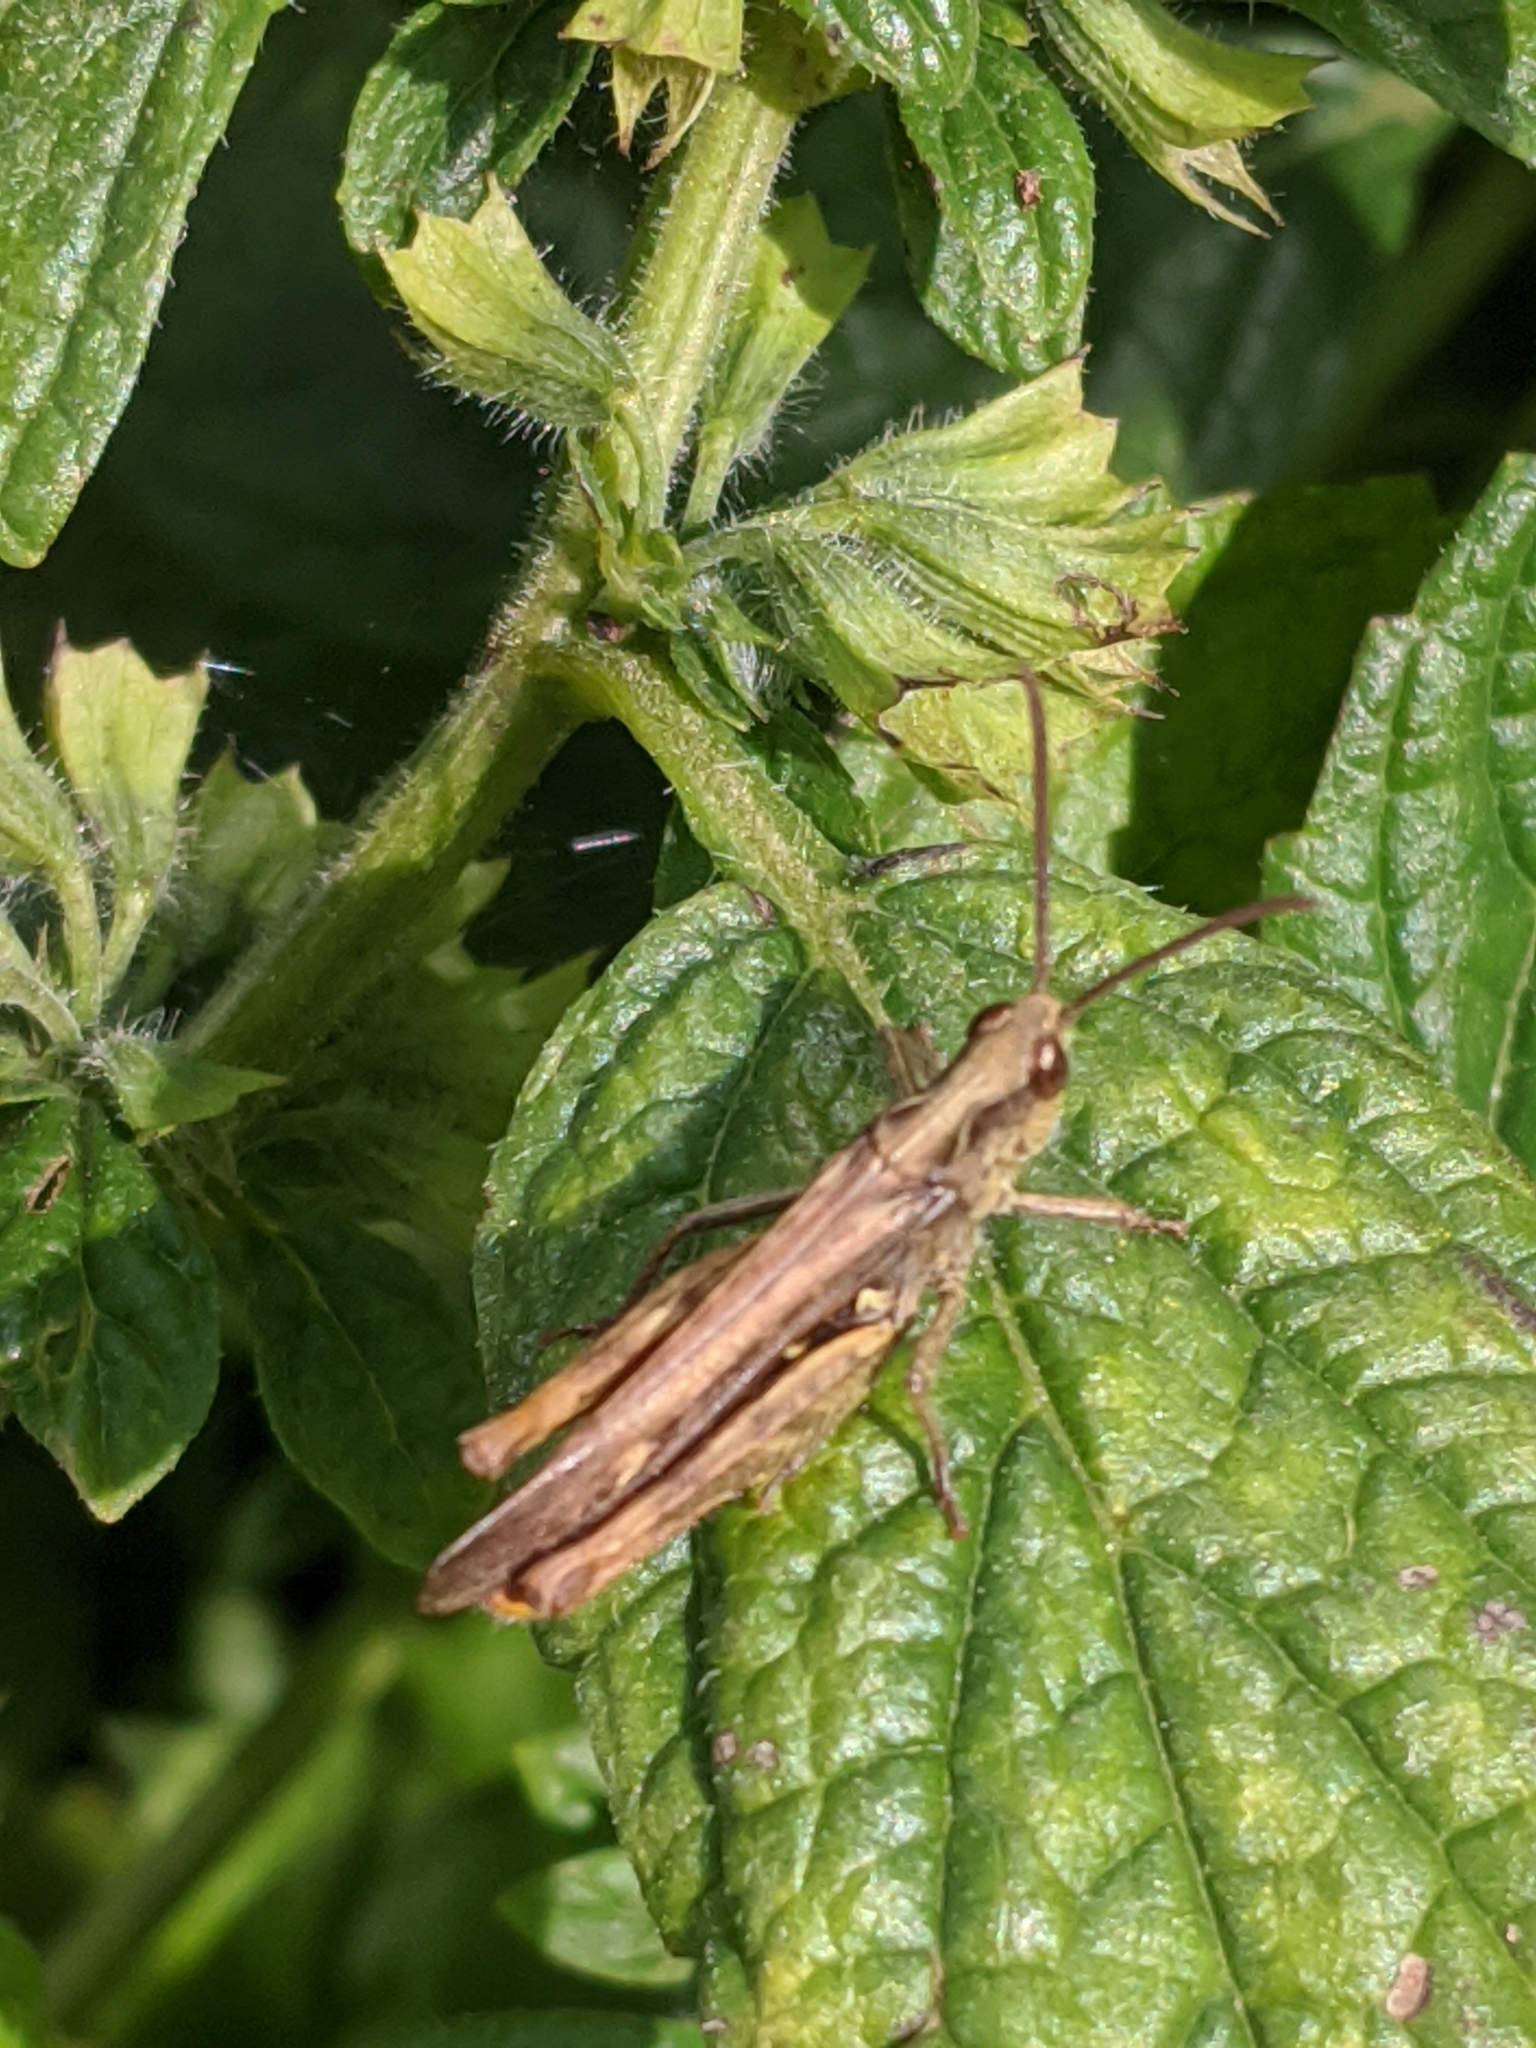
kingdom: Animalia
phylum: Arthropoda
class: Insecta
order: Orthoptera
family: Acrididae
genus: Chorthippus
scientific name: Chorthippus brunneus
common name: Field grasshopper
